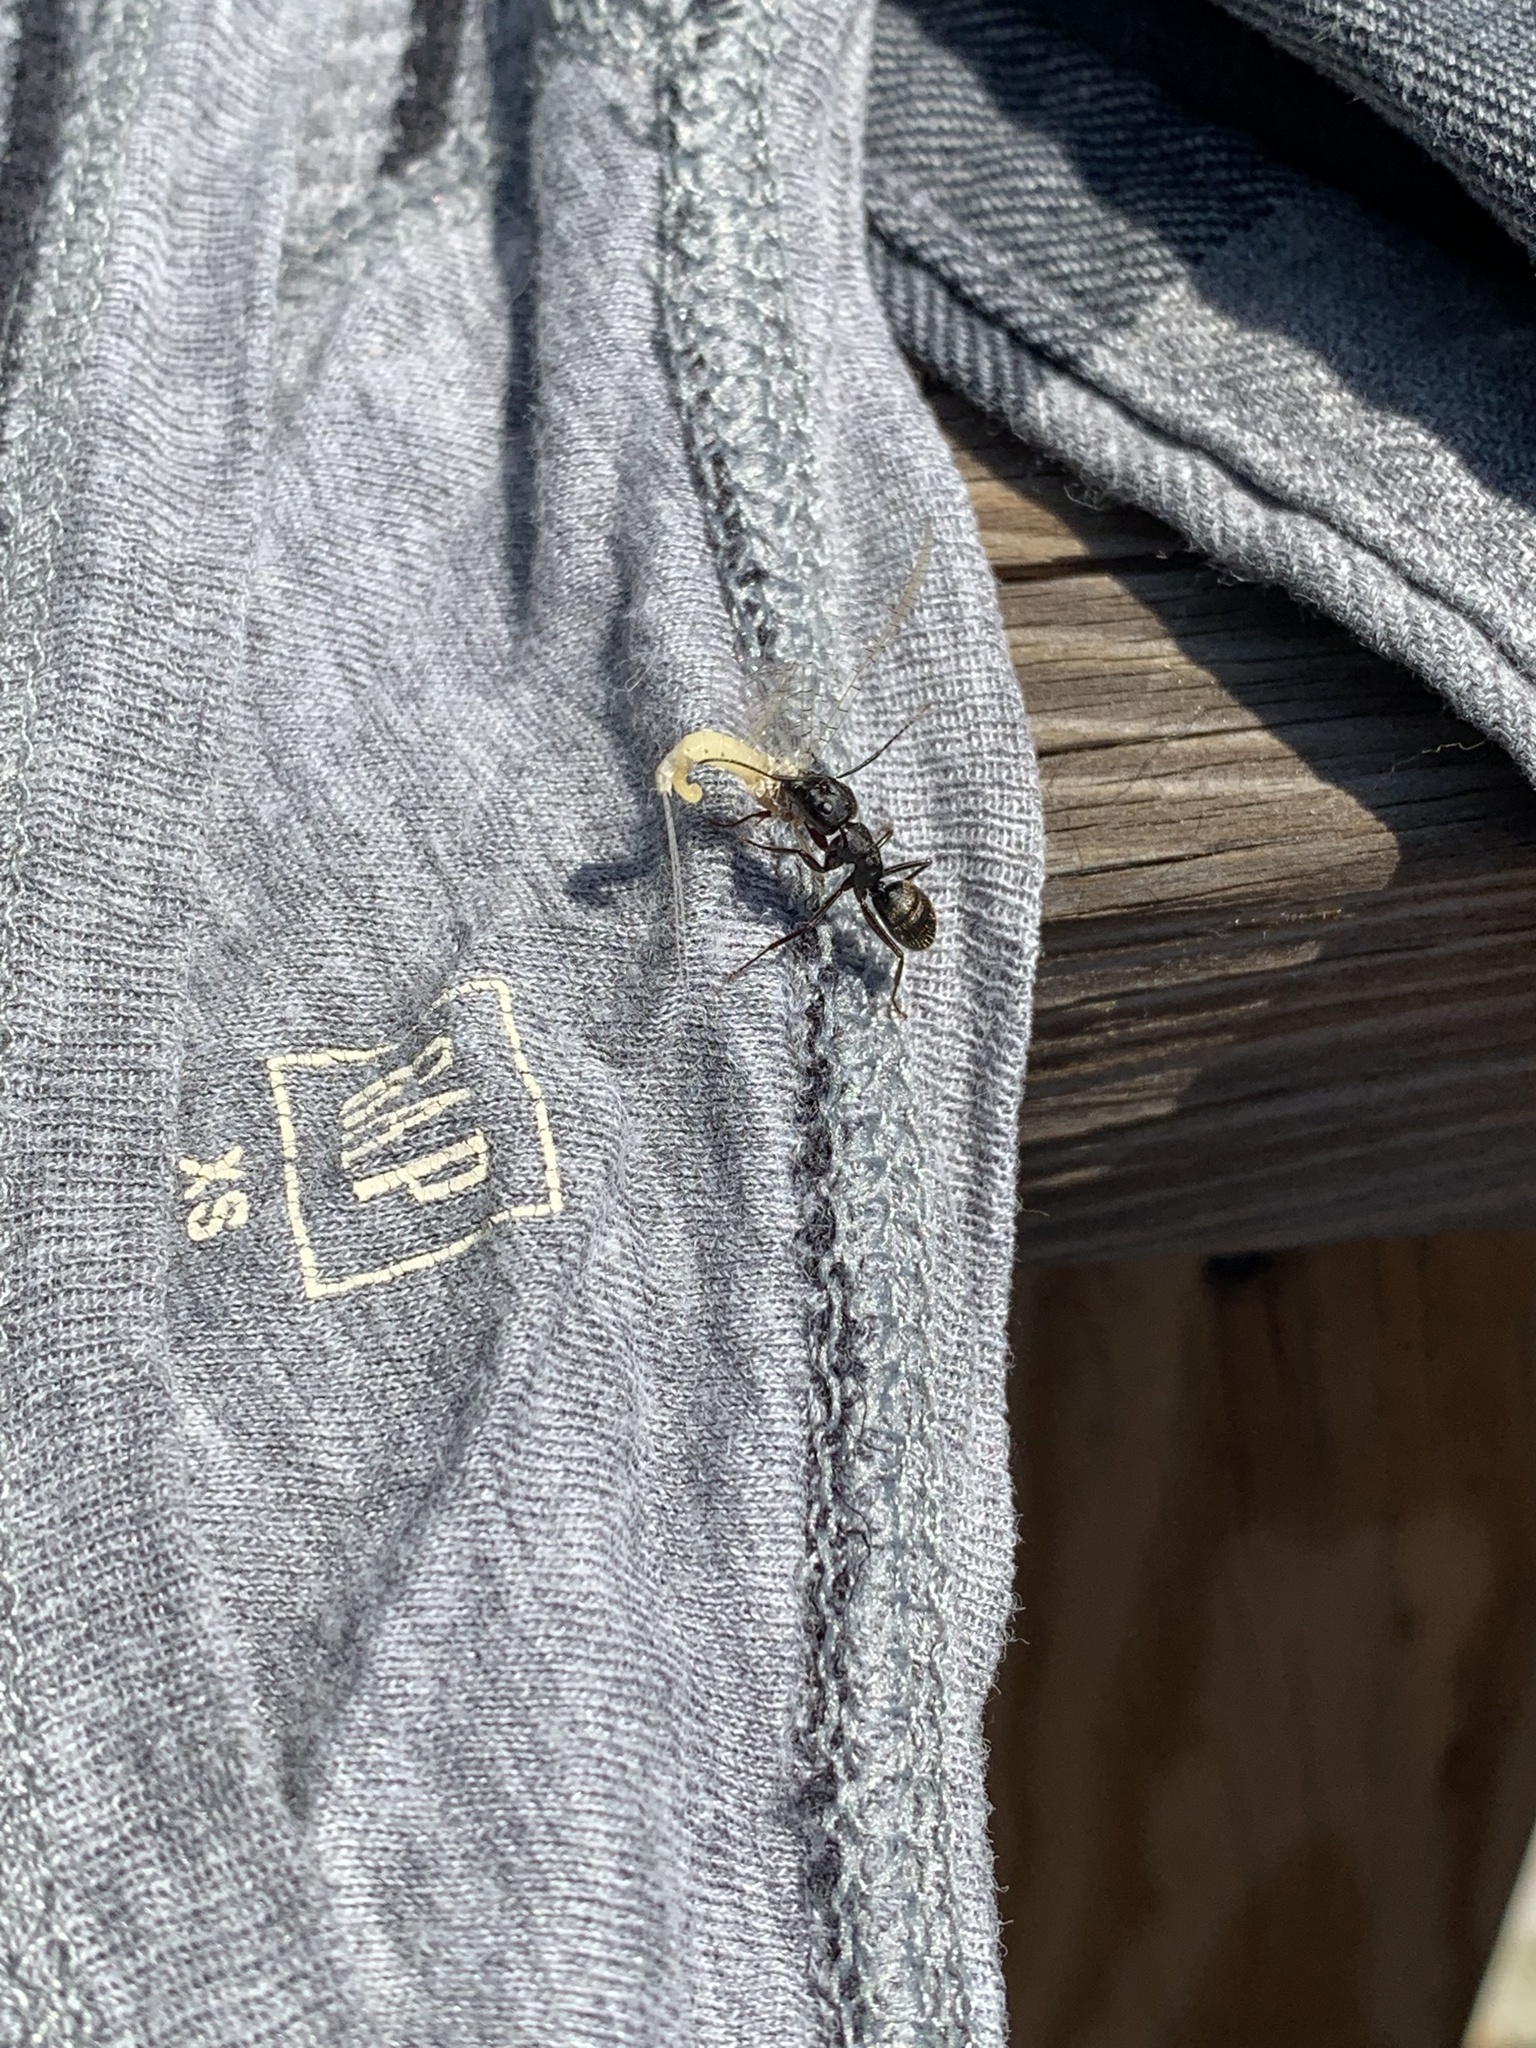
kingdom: Animalia
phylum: Arthropoda
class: Insecta
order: Hymenoptera
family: Formicidae
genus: Camponotus
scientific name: Camponotus pennsylvanicus
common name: Black carpenter ant
